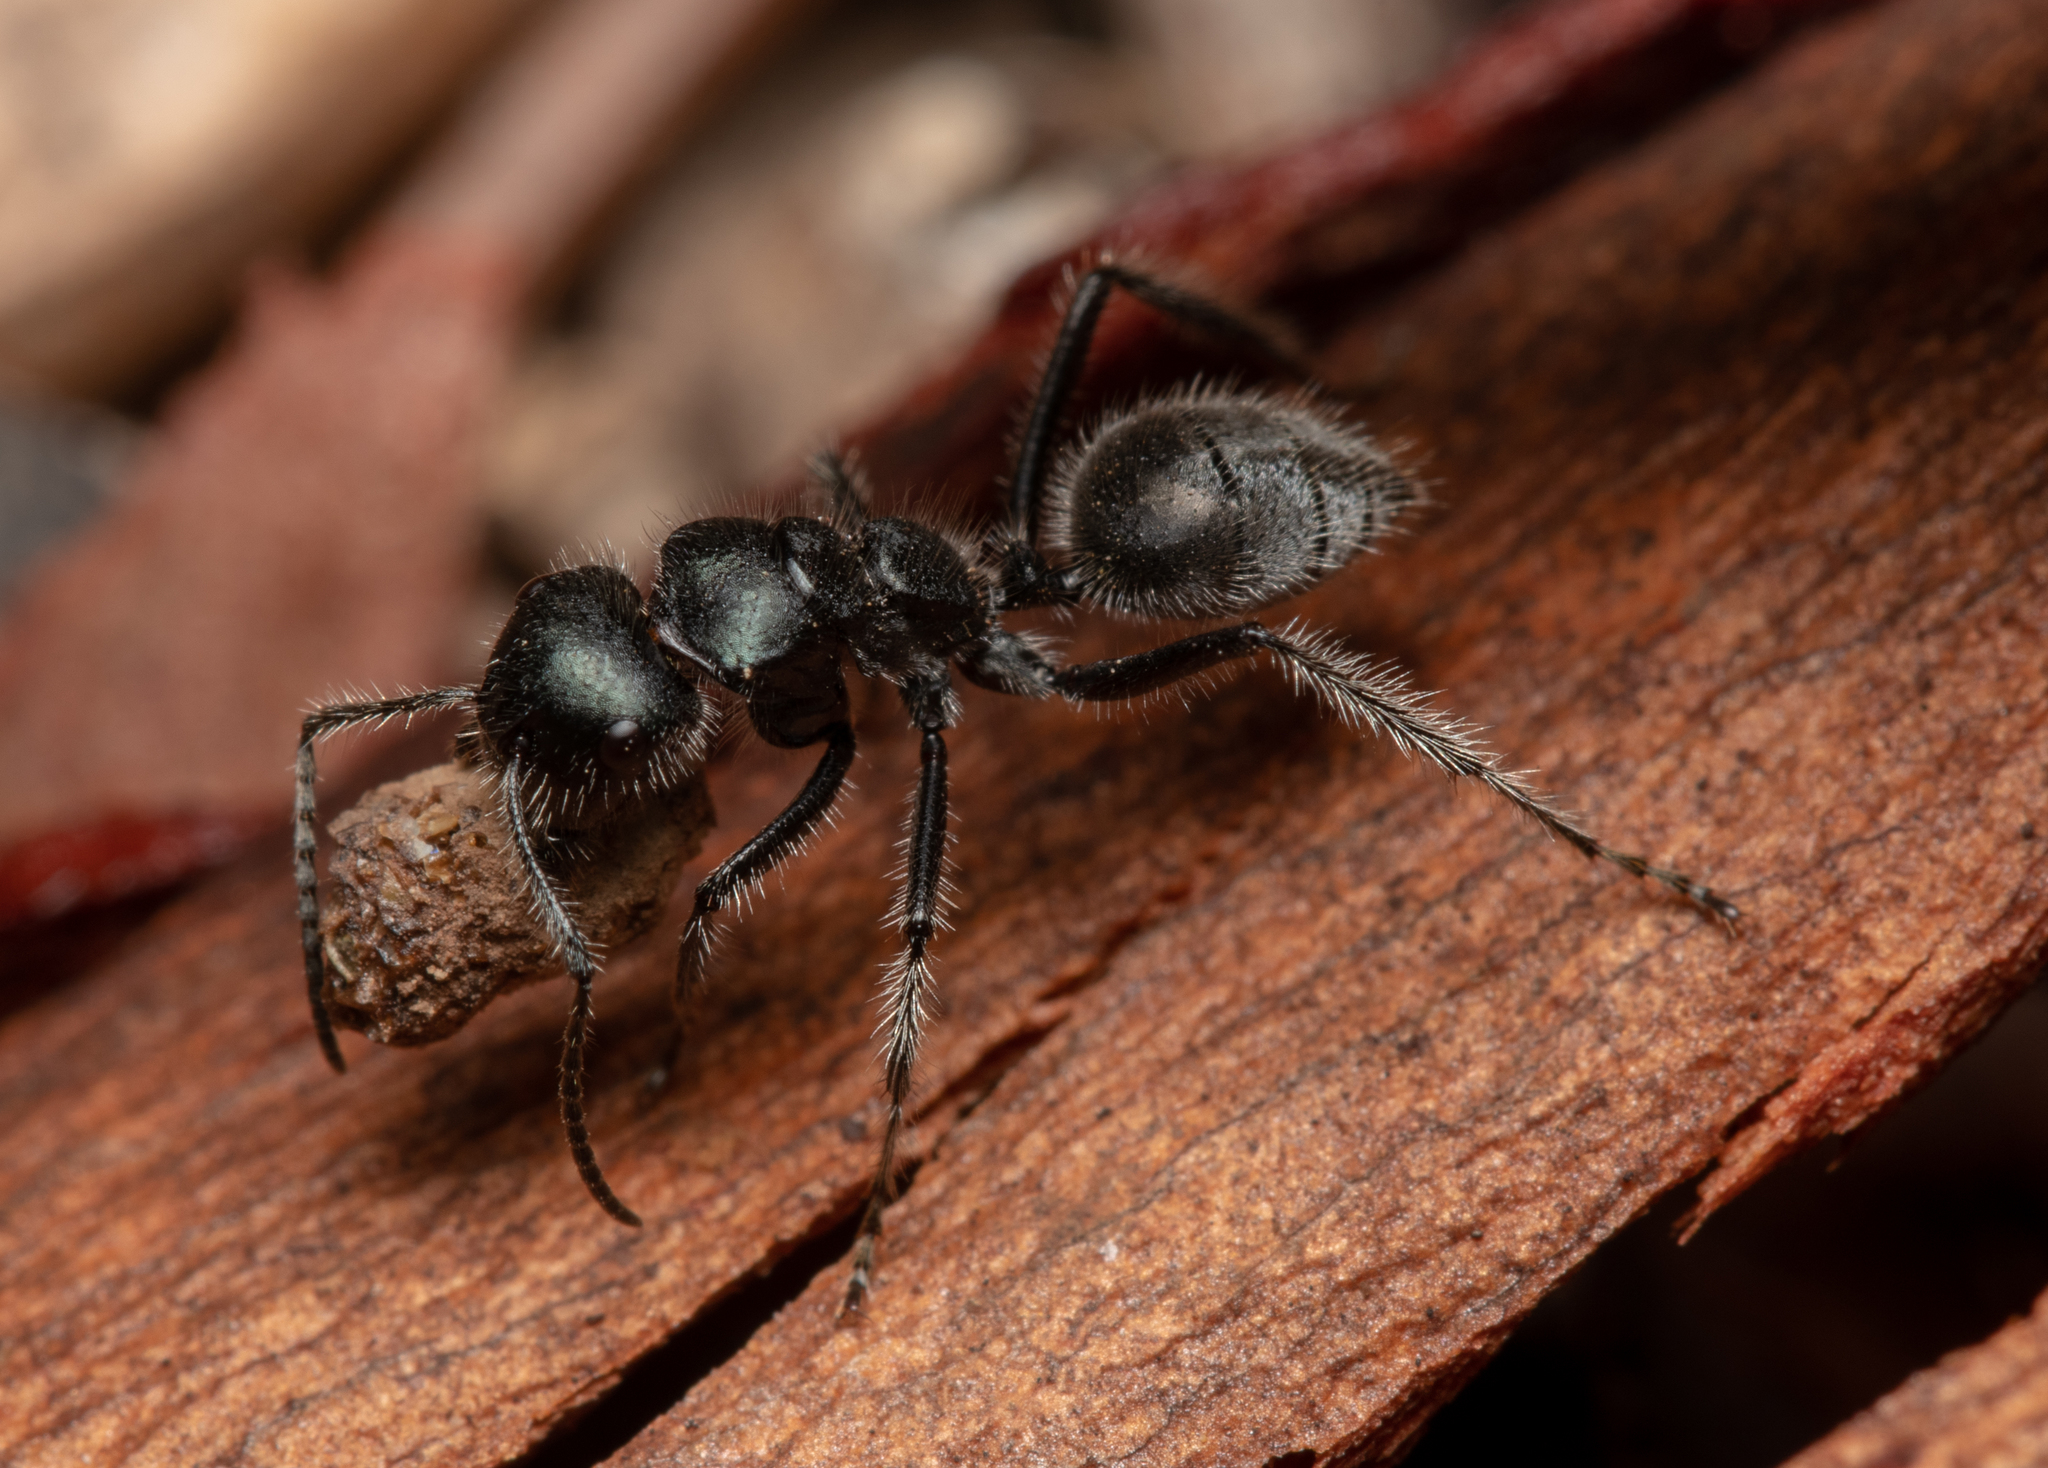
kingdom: Animalia
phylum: Arthropoda
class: Insecta
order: Hymenoptera
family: Formicidae
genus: Calomyrmex
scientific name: Calomyrmex albopilosus
